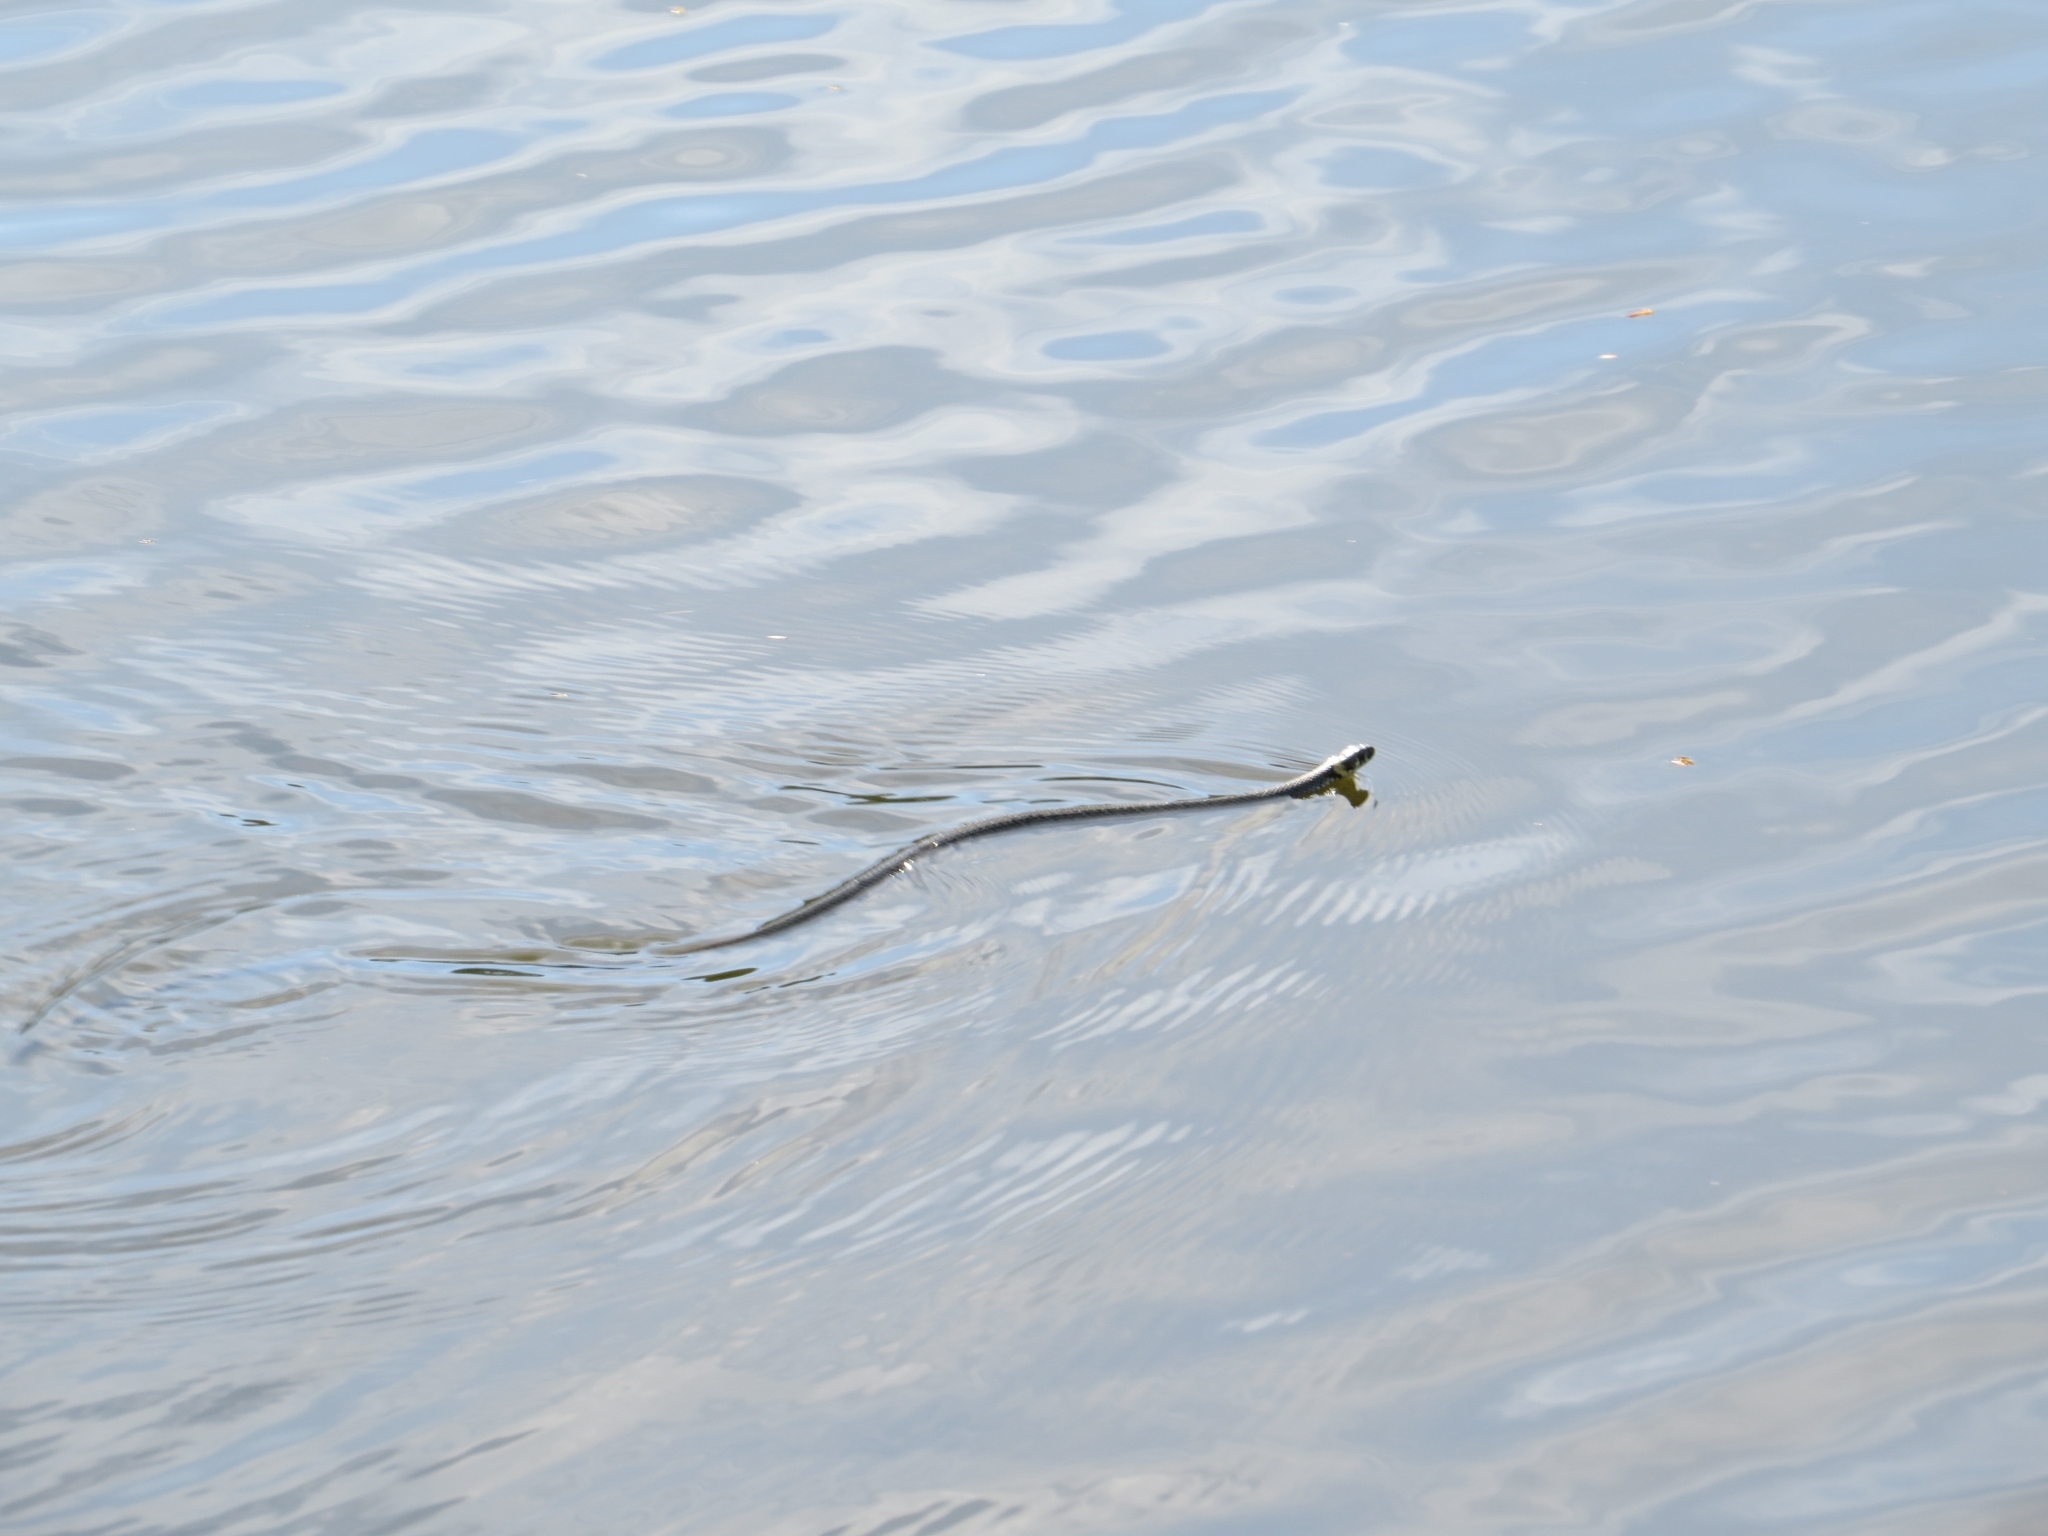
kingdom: Animalia
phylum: Chordata
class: Squamata
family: Colubridae
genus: Natrix
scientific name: Natrix natrix
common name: Grass snake
